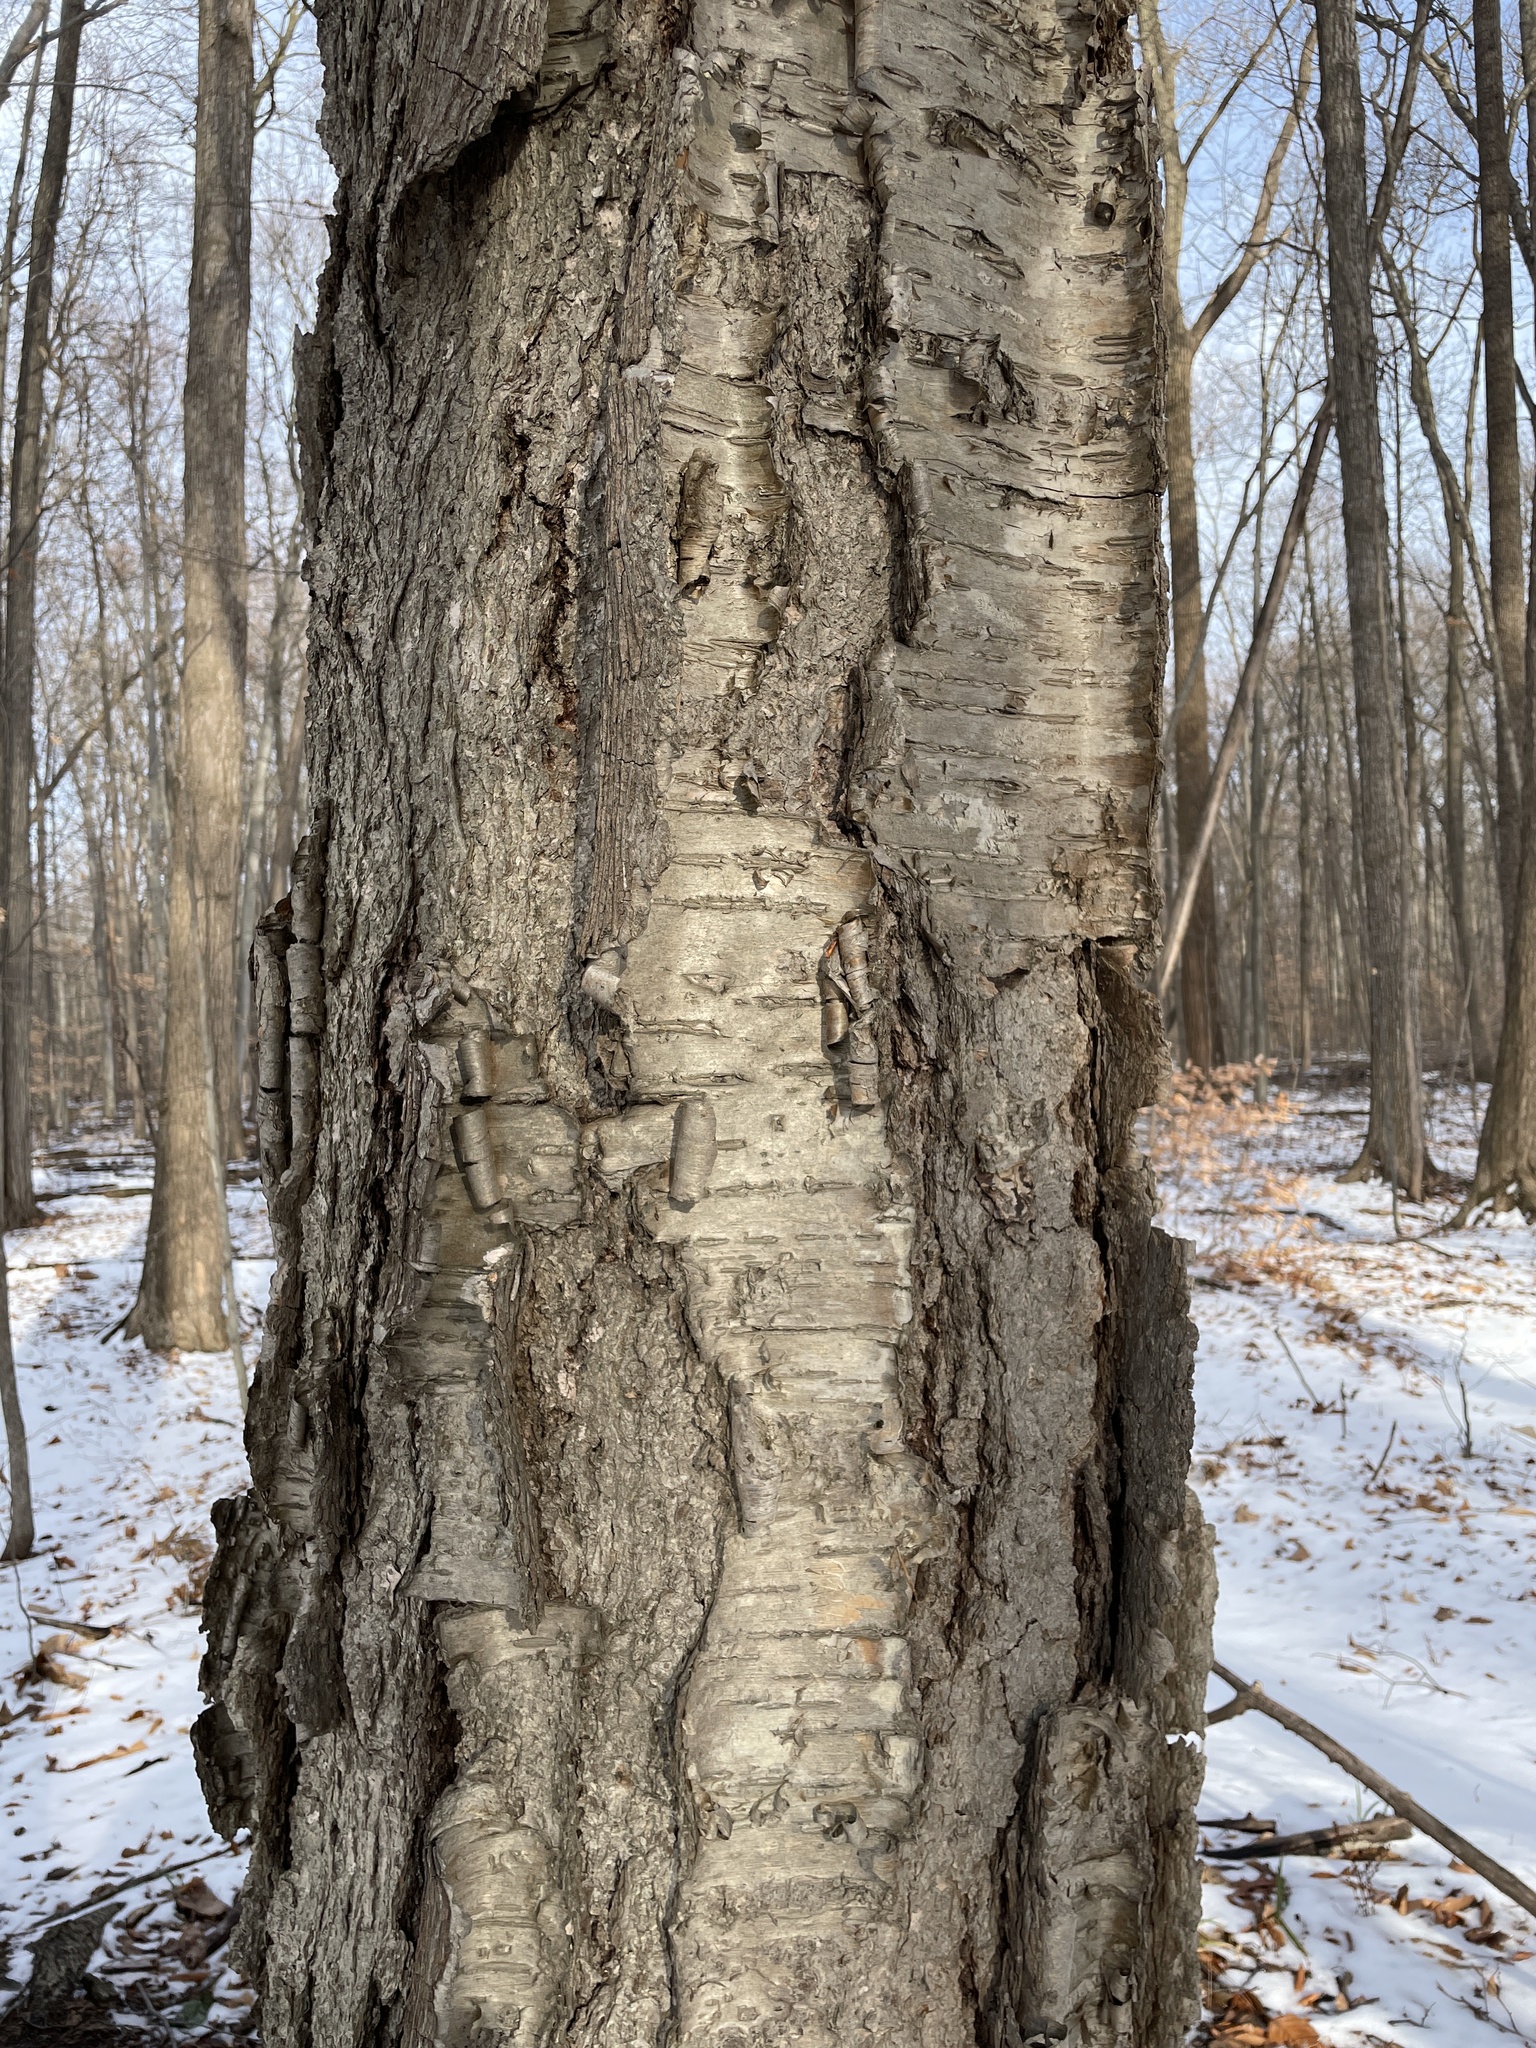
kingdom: Plantae
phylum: Tracheophyta
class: Magnoliopsida
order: Fagales
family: Betulaceae
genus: Betula
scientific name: Betula alleghaniensis
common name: Yellow birch
